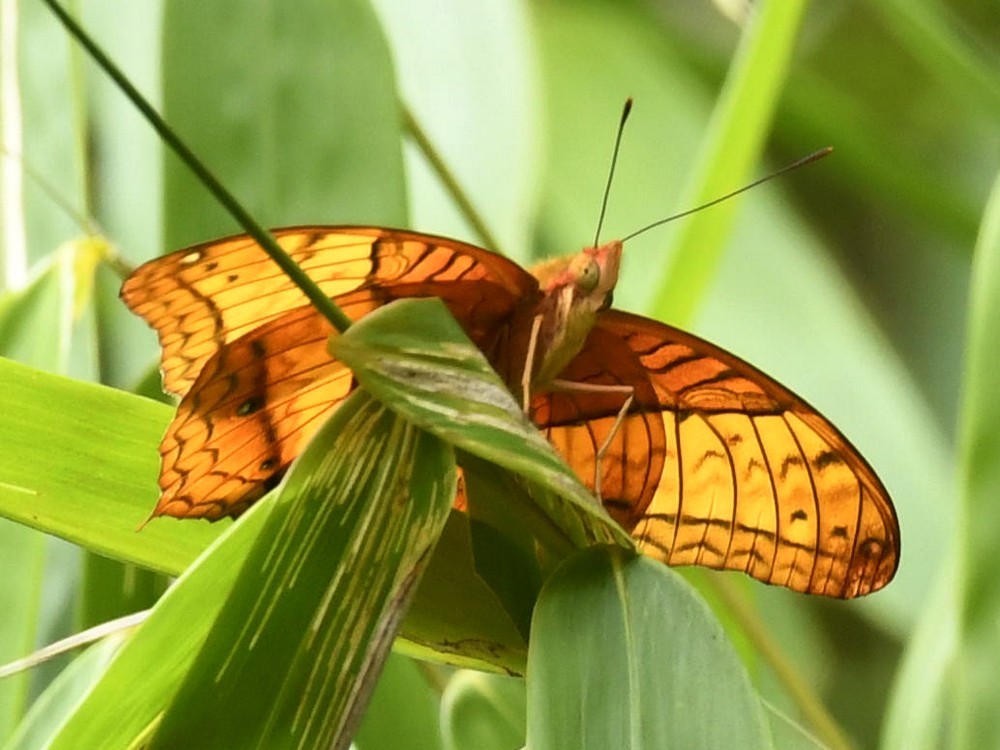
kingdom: Animalia
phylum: Arthropoda
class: Insecta
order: Lepidoptera
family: Nymphalidae
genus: Vindula
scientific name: Vindula erota
